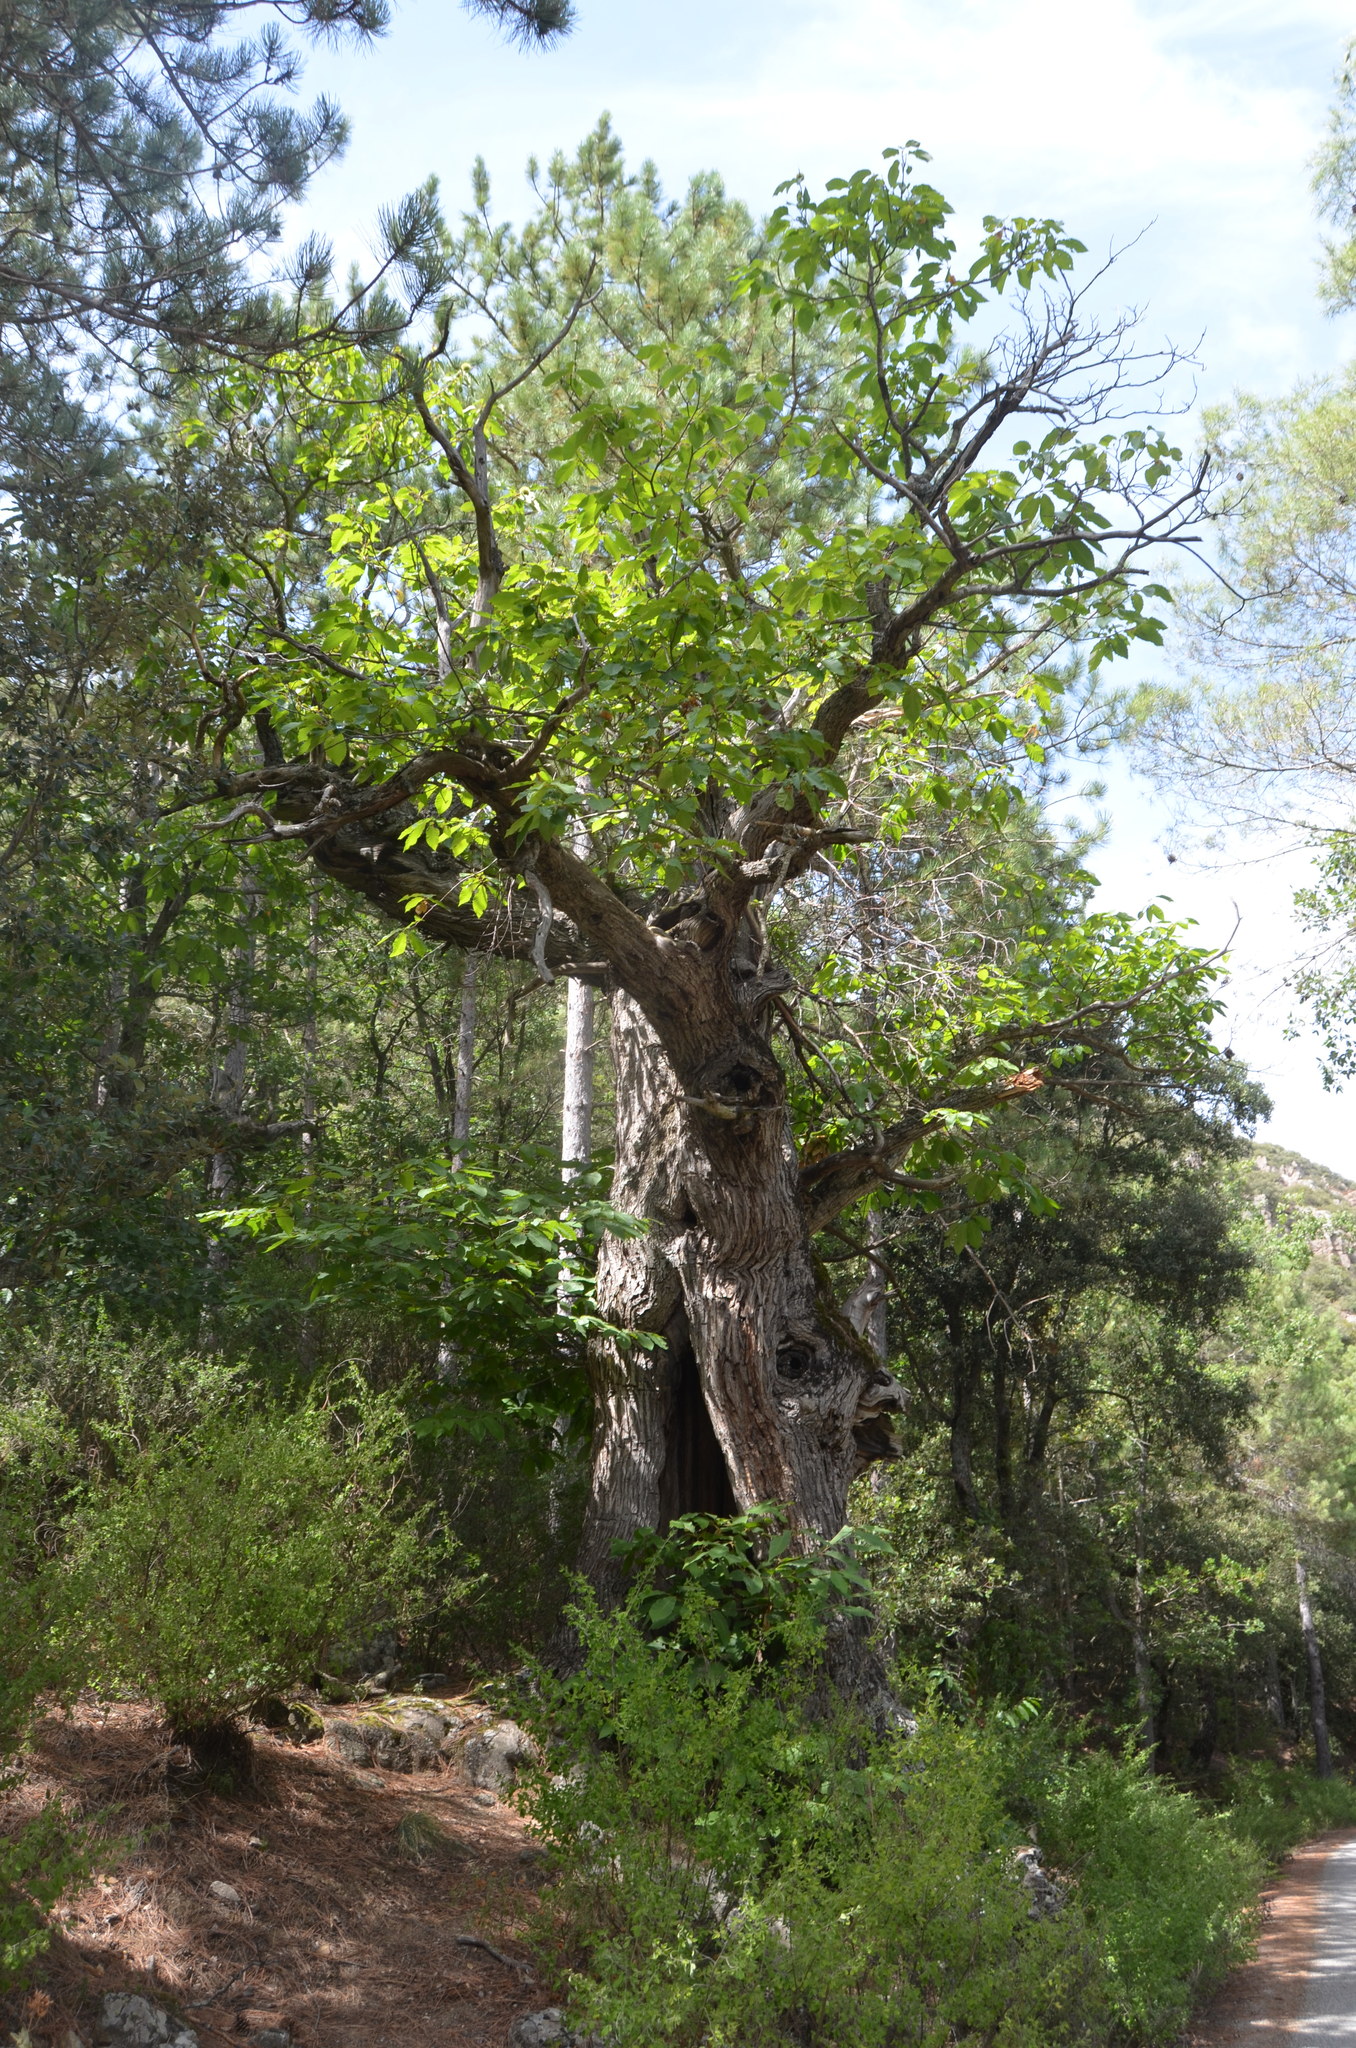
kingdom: Plantae
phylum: Tracheophyta
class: Magnoliopsida
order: Fagales
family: Fagaceae
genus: Castanea
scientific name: Castanea sativa
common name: Sweet chestnut
